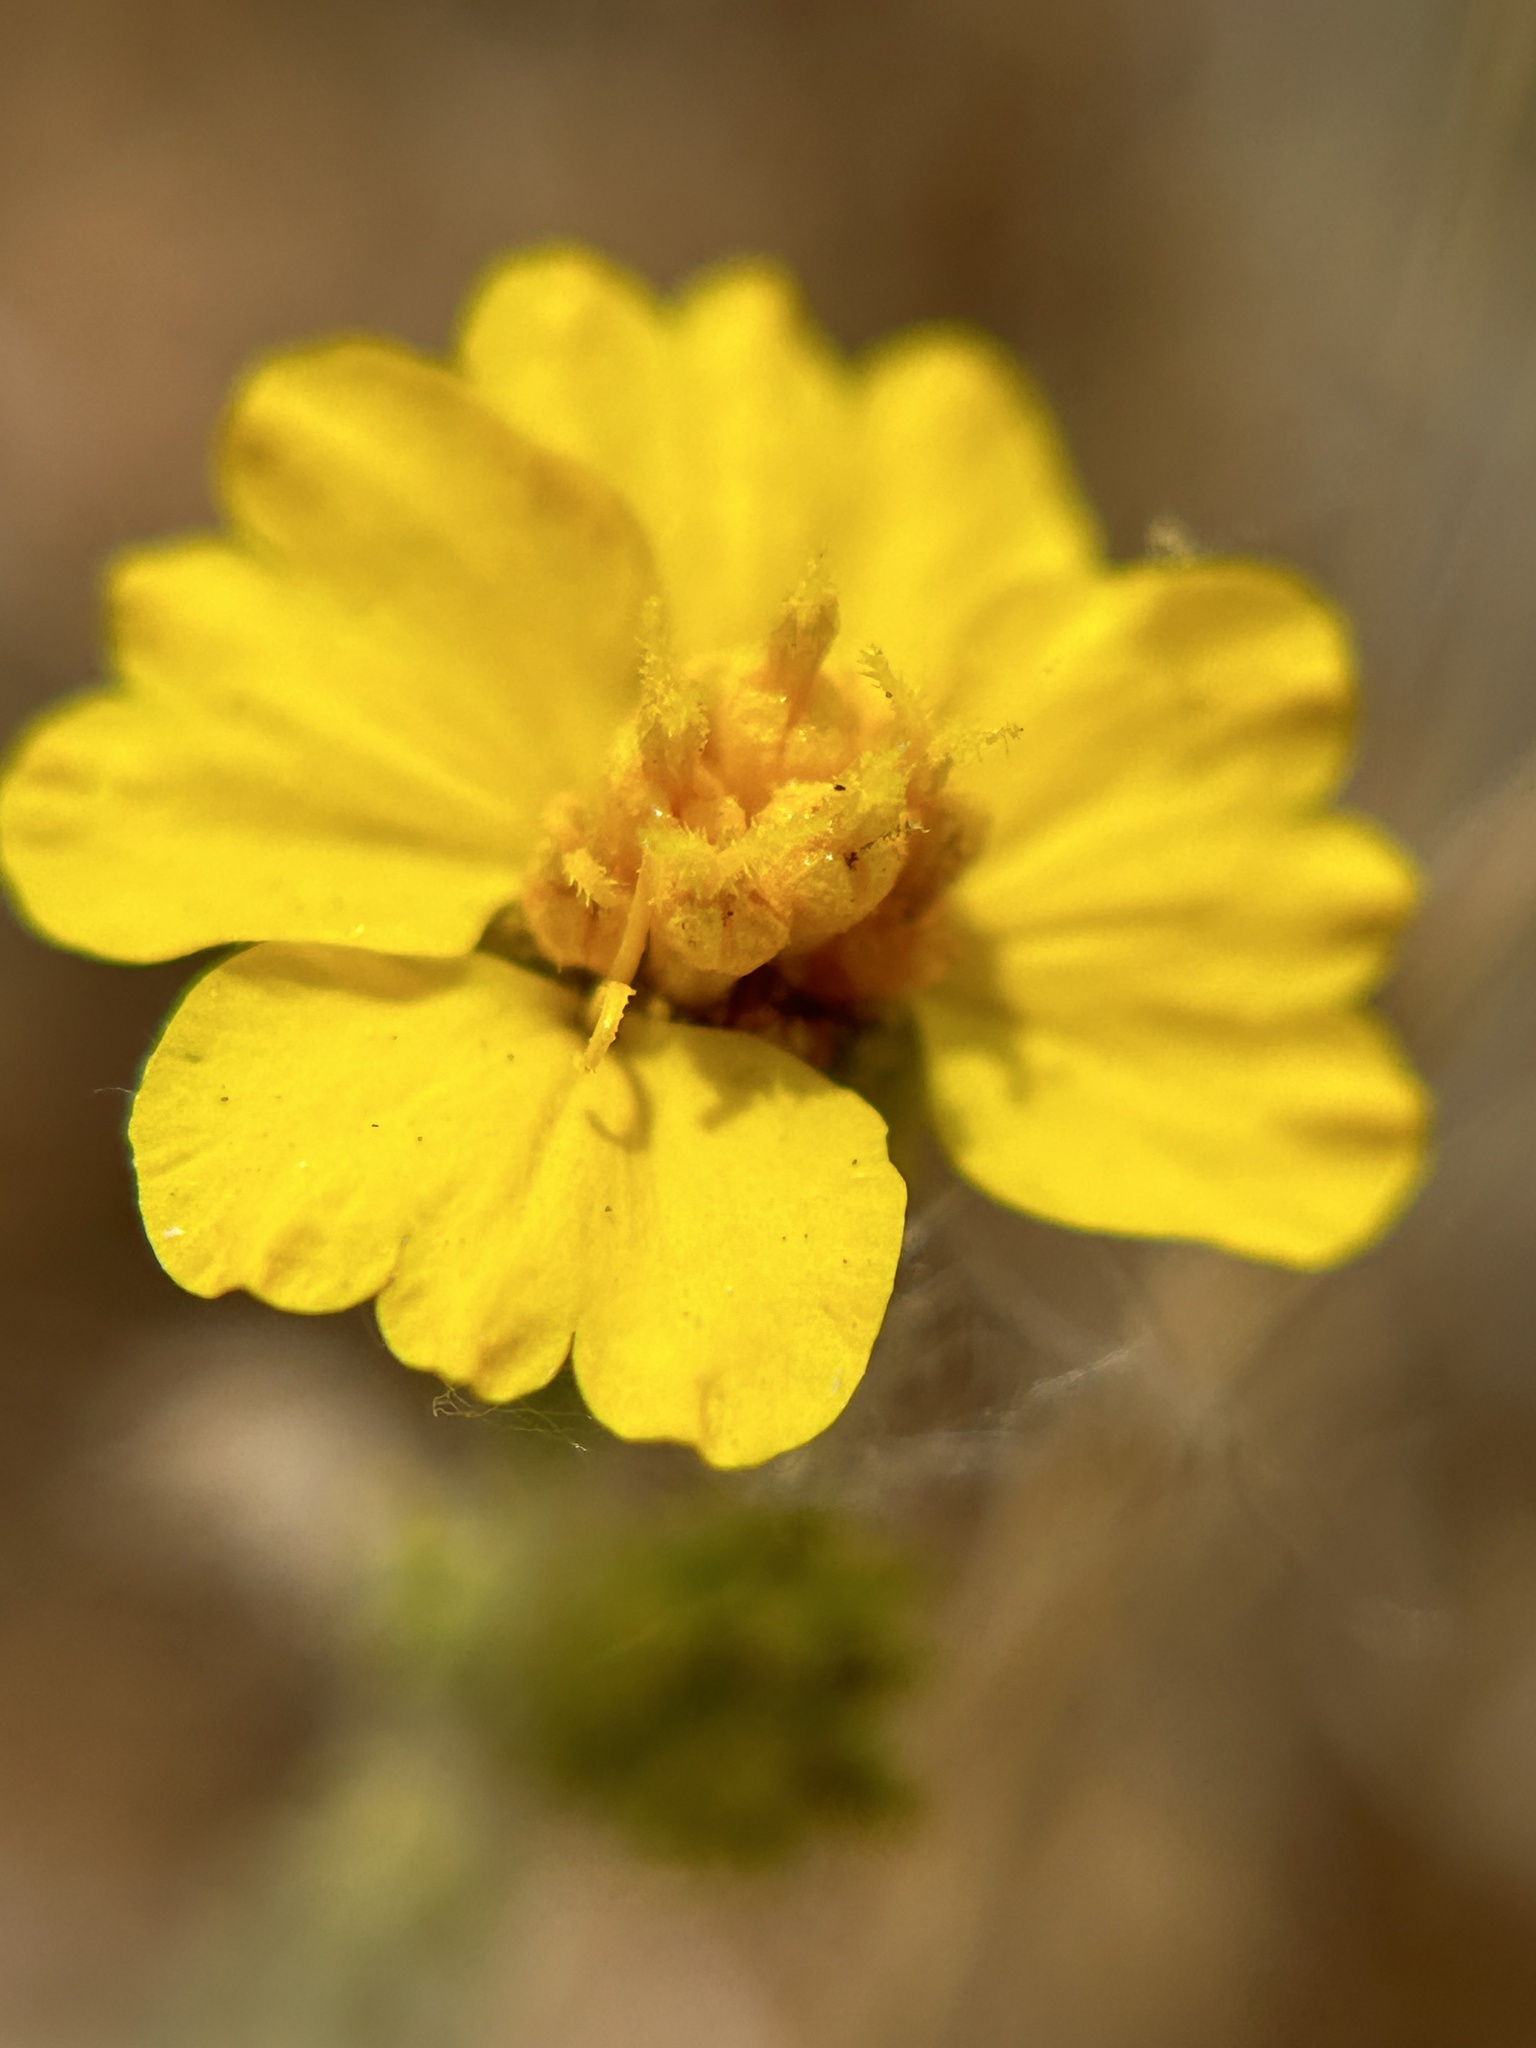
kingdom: Plantae
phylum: Tracheophyta
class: Magnoliopsida
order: Asterales
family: Asteraceae
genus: Holocarpha
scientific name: Holocarpha heermannii
